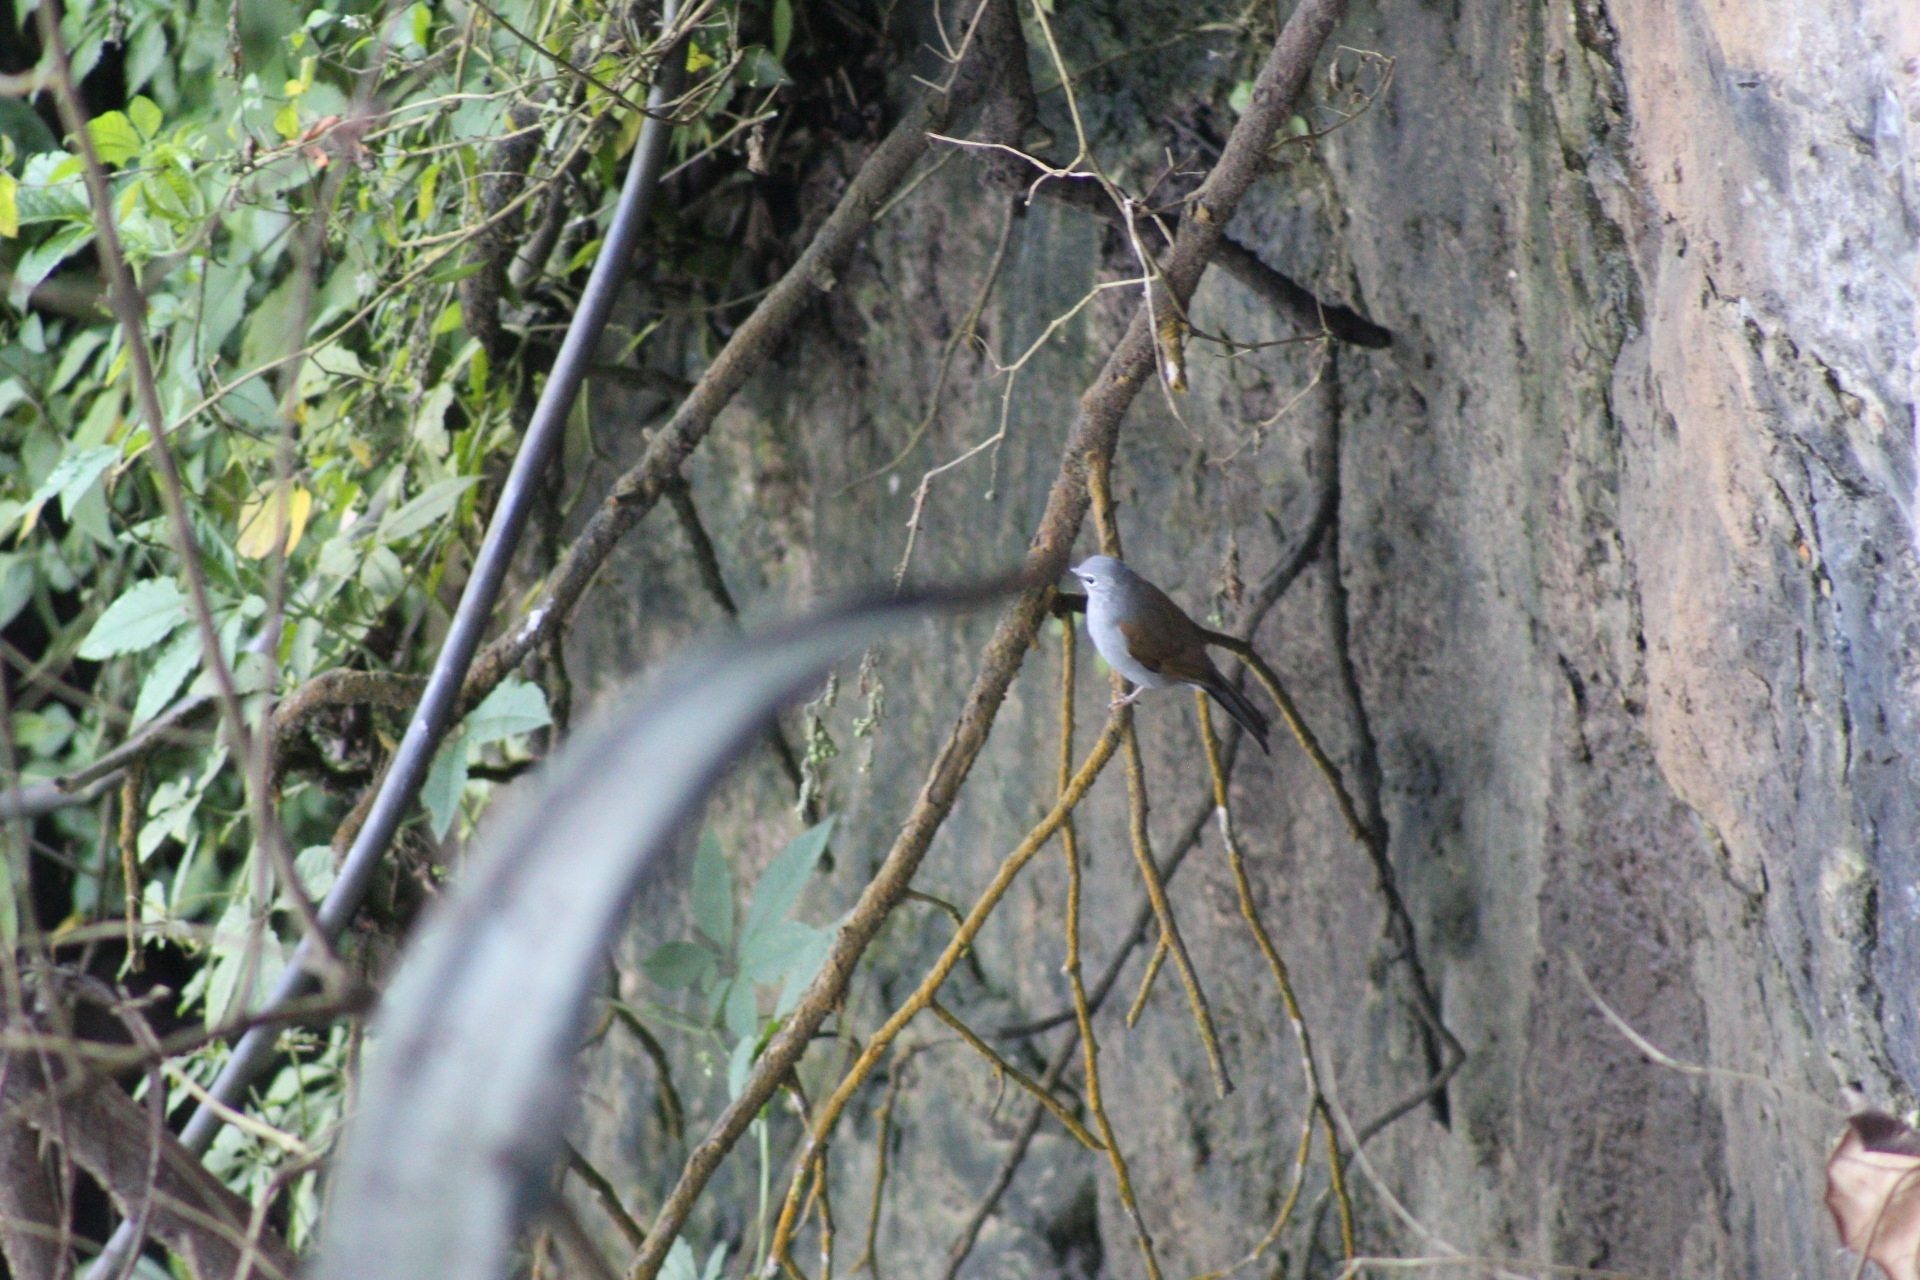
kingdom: Animalia
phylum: Chordata
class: Aves
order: Passeriformes
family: Turdidae
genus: Myadestes
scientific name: Myadestes occidentalis
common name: Brown-backed solitaire
